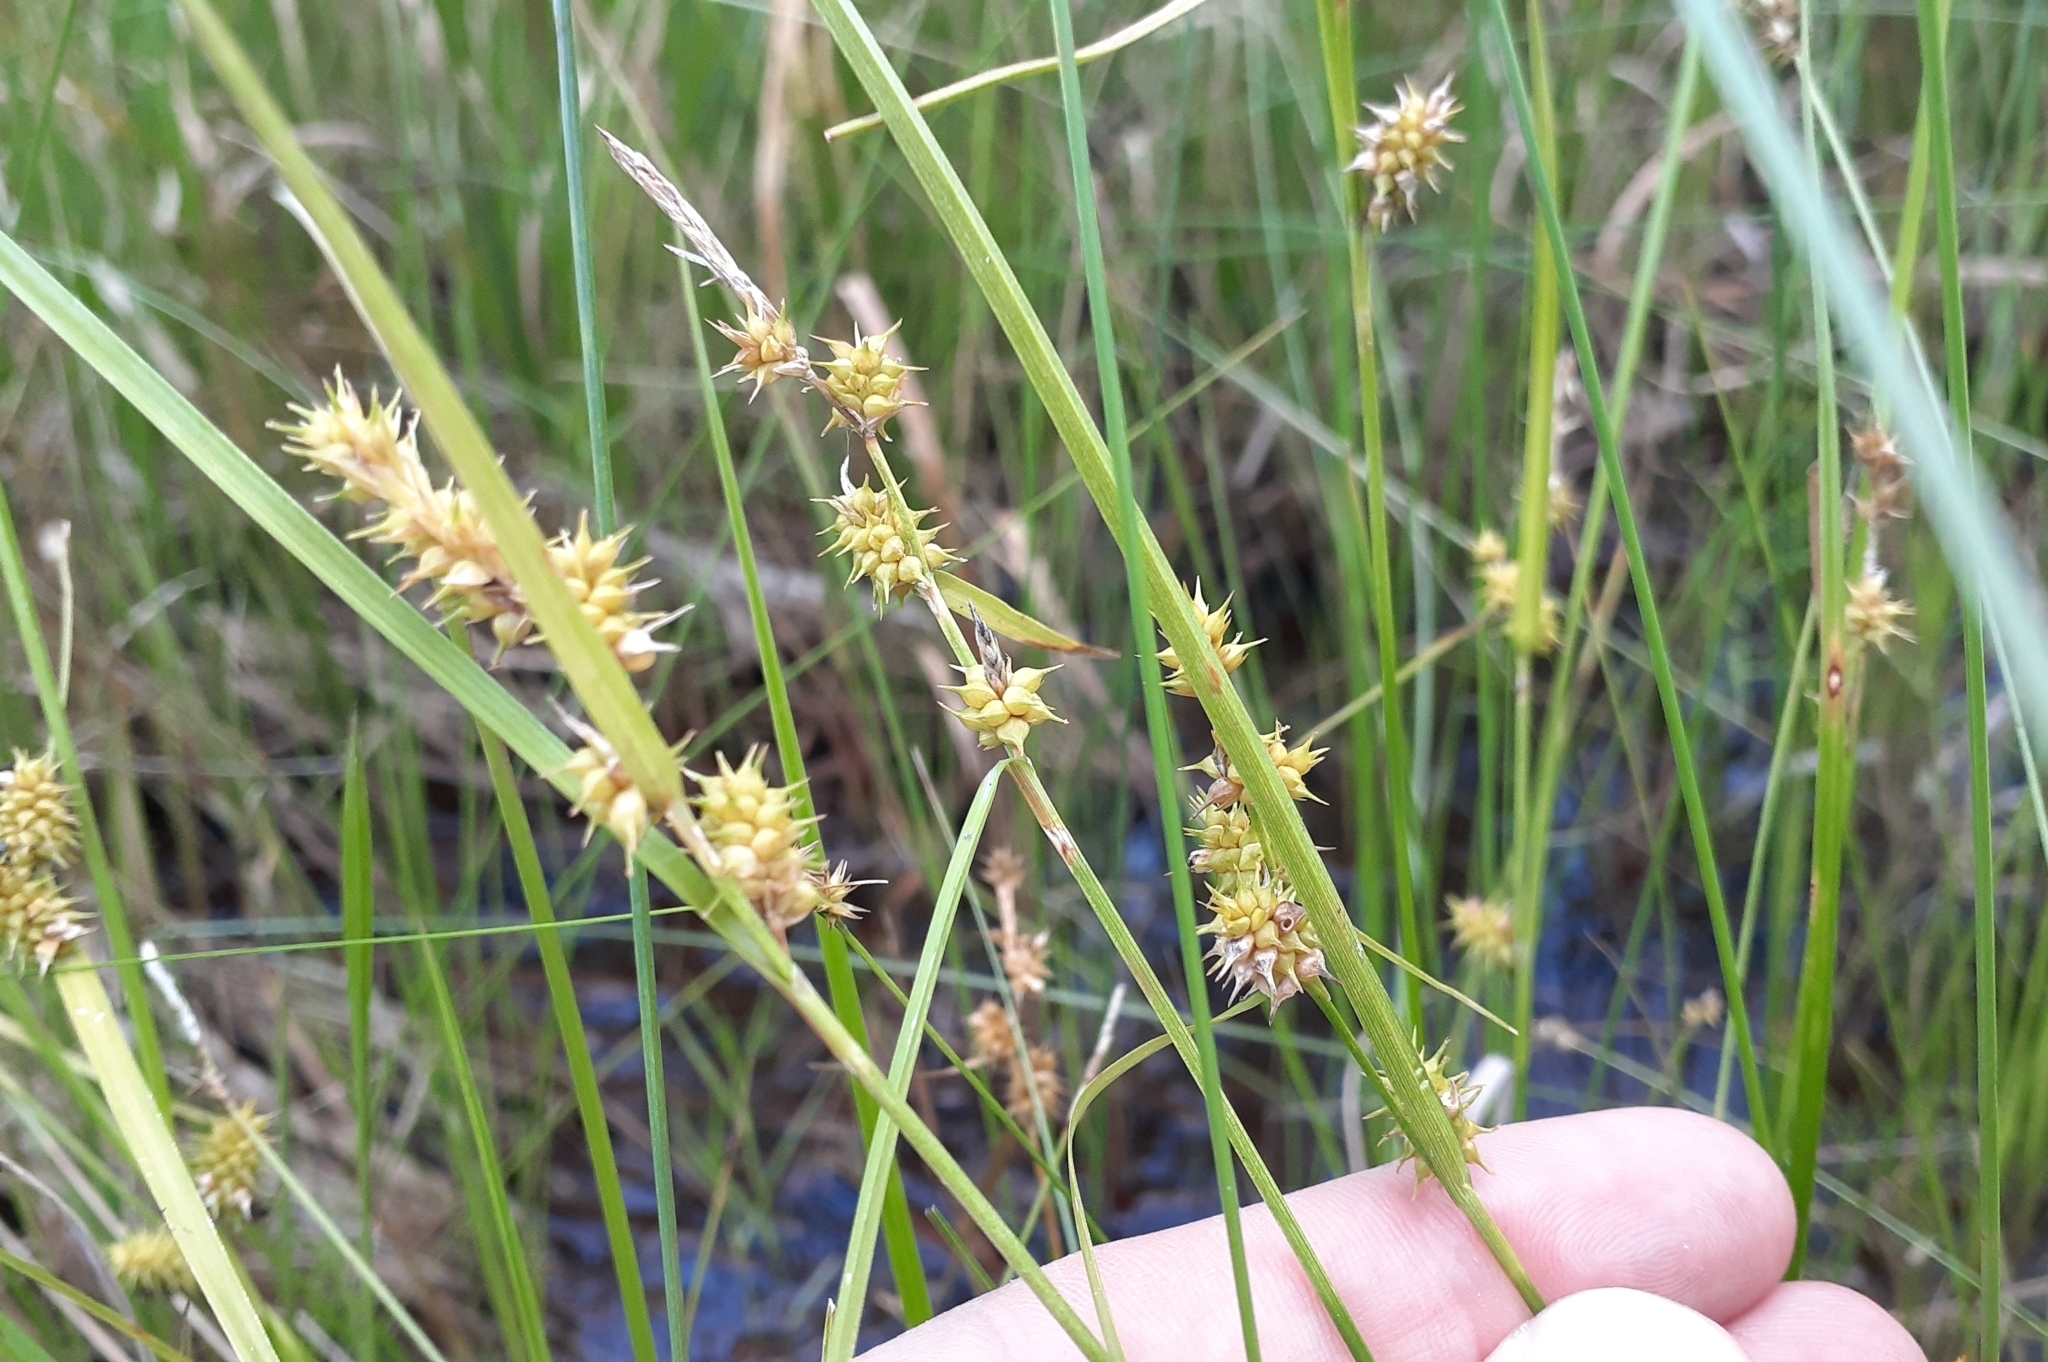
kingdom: Plantae
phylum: Tracheophyta
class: Liliopsida
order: Poales
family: Cyperaceae
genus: Carex
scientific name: Carex cryptolepis
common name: Northeastern sedge
